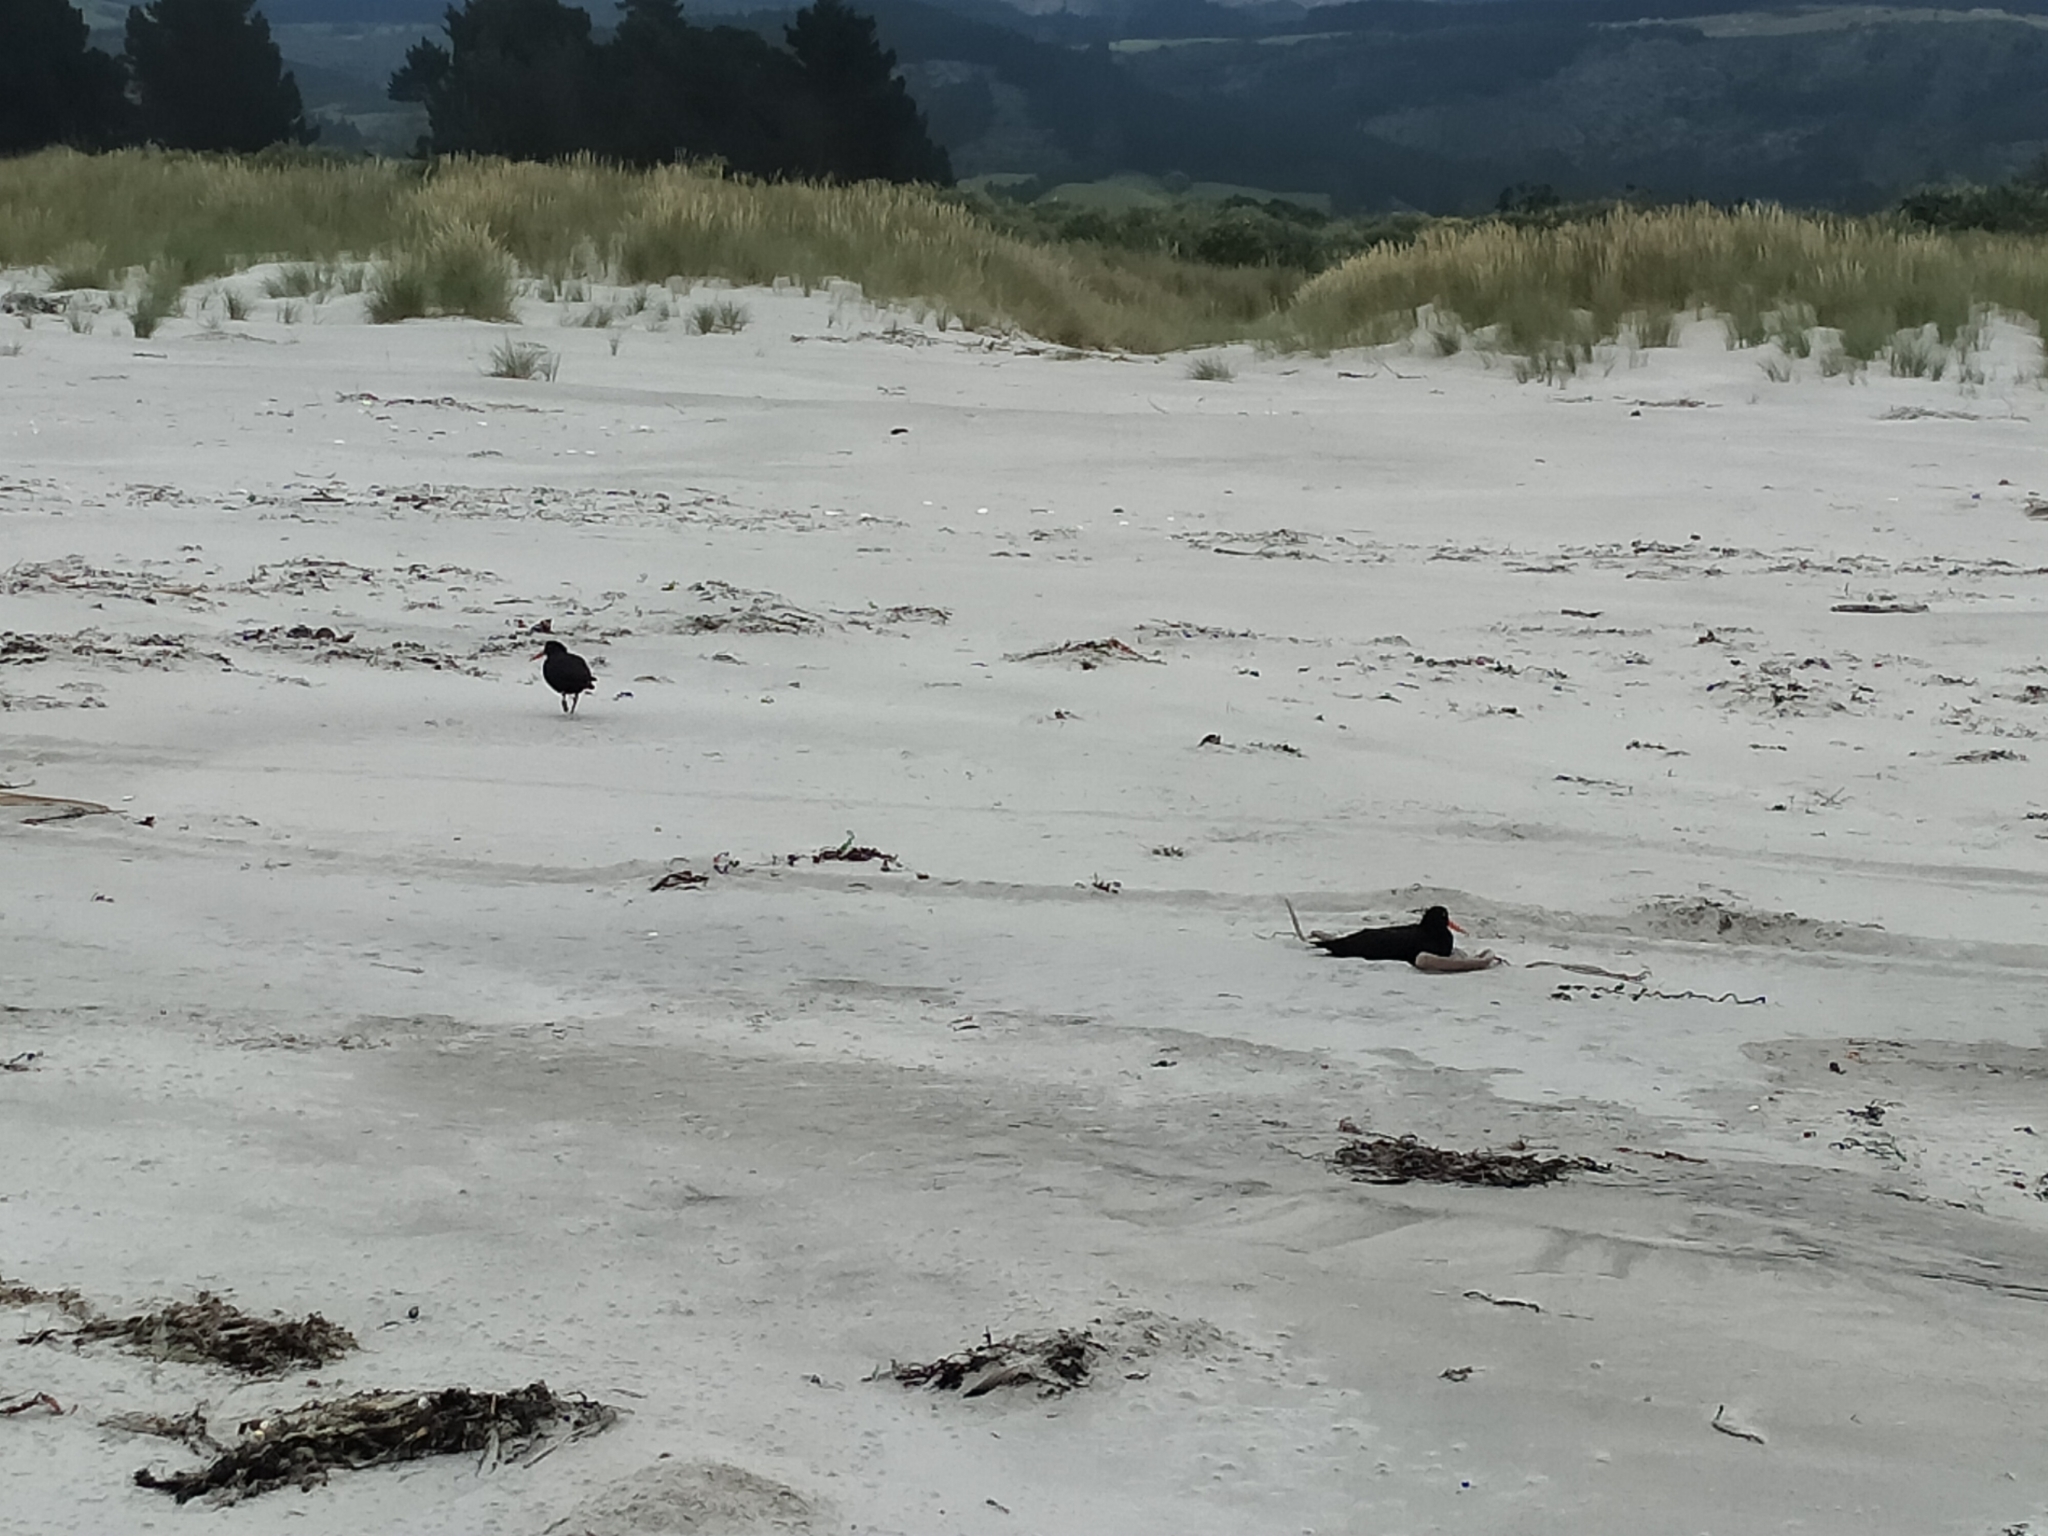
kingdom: Animalia
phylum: Chordata
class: Aves
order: Charadriiformes
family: Haematopodidae
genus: Haematopus
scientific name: Haematopus unicolor
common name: Variable oystercatcher
